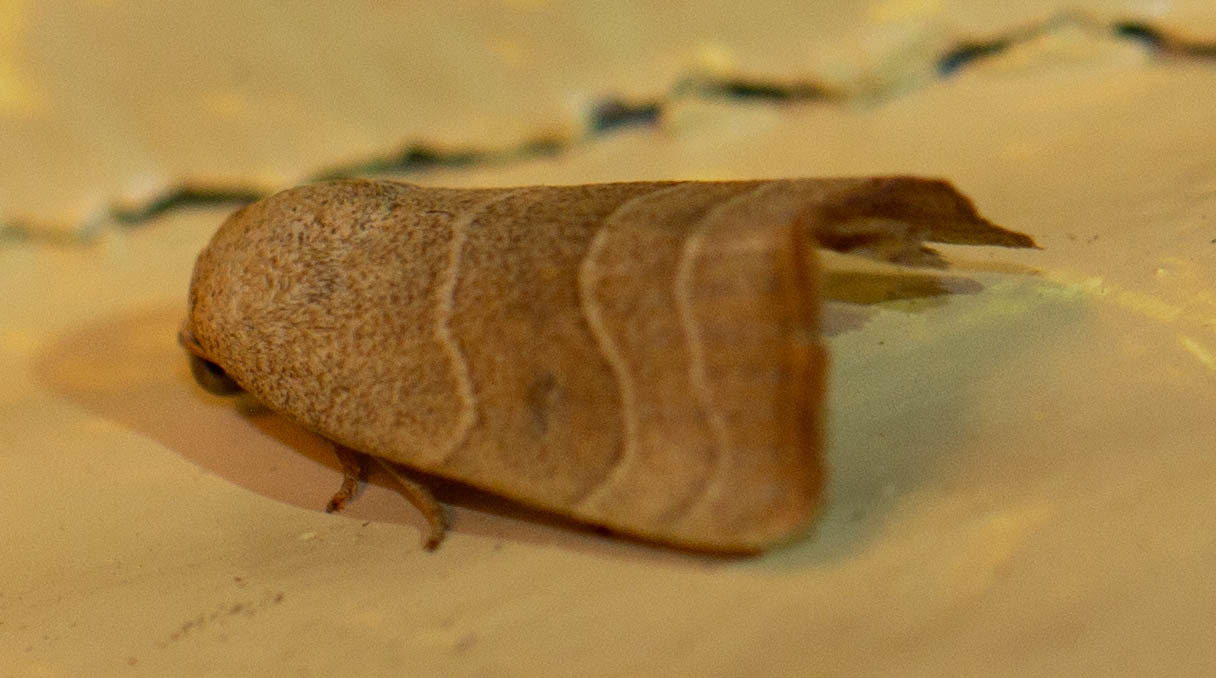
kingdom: Animalia
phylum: Arthropoda
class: Insecta
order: Lepidoptera
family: Noctuidae
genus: Bagisara
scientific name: Bagisara repanda
